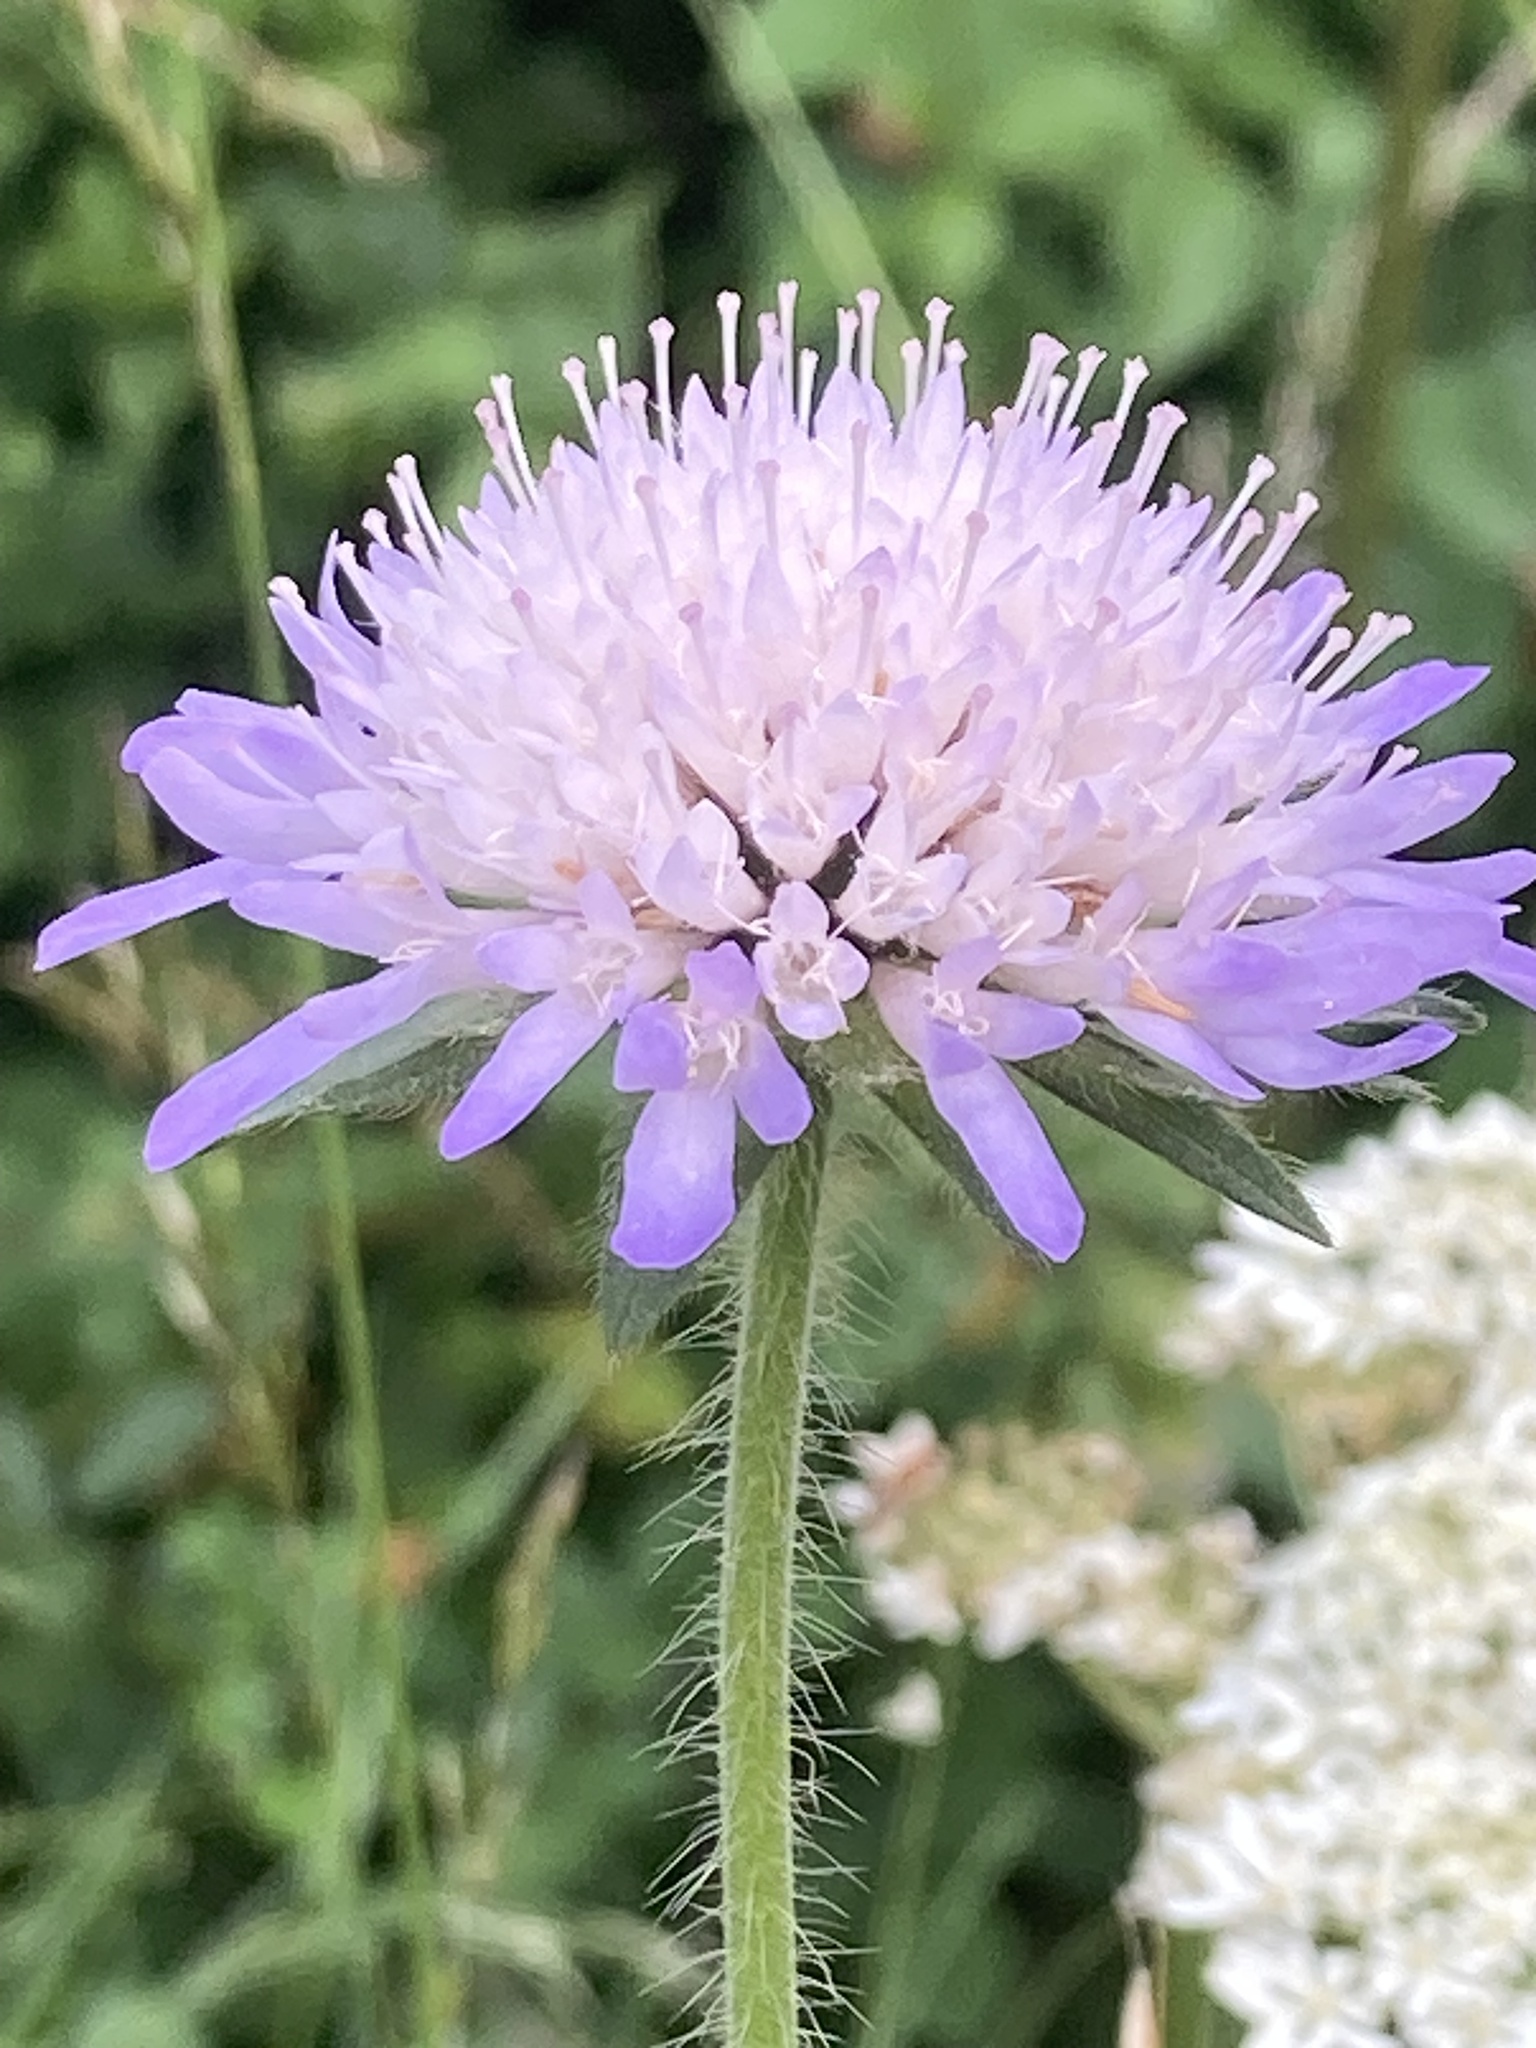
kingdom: Plantae
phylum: Tracheophyta
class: Magnoliopsida
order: Dipsacales
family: Caprifoliaceae
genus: Knautia
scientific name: Knautia arvensis
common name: Field scabiosa
